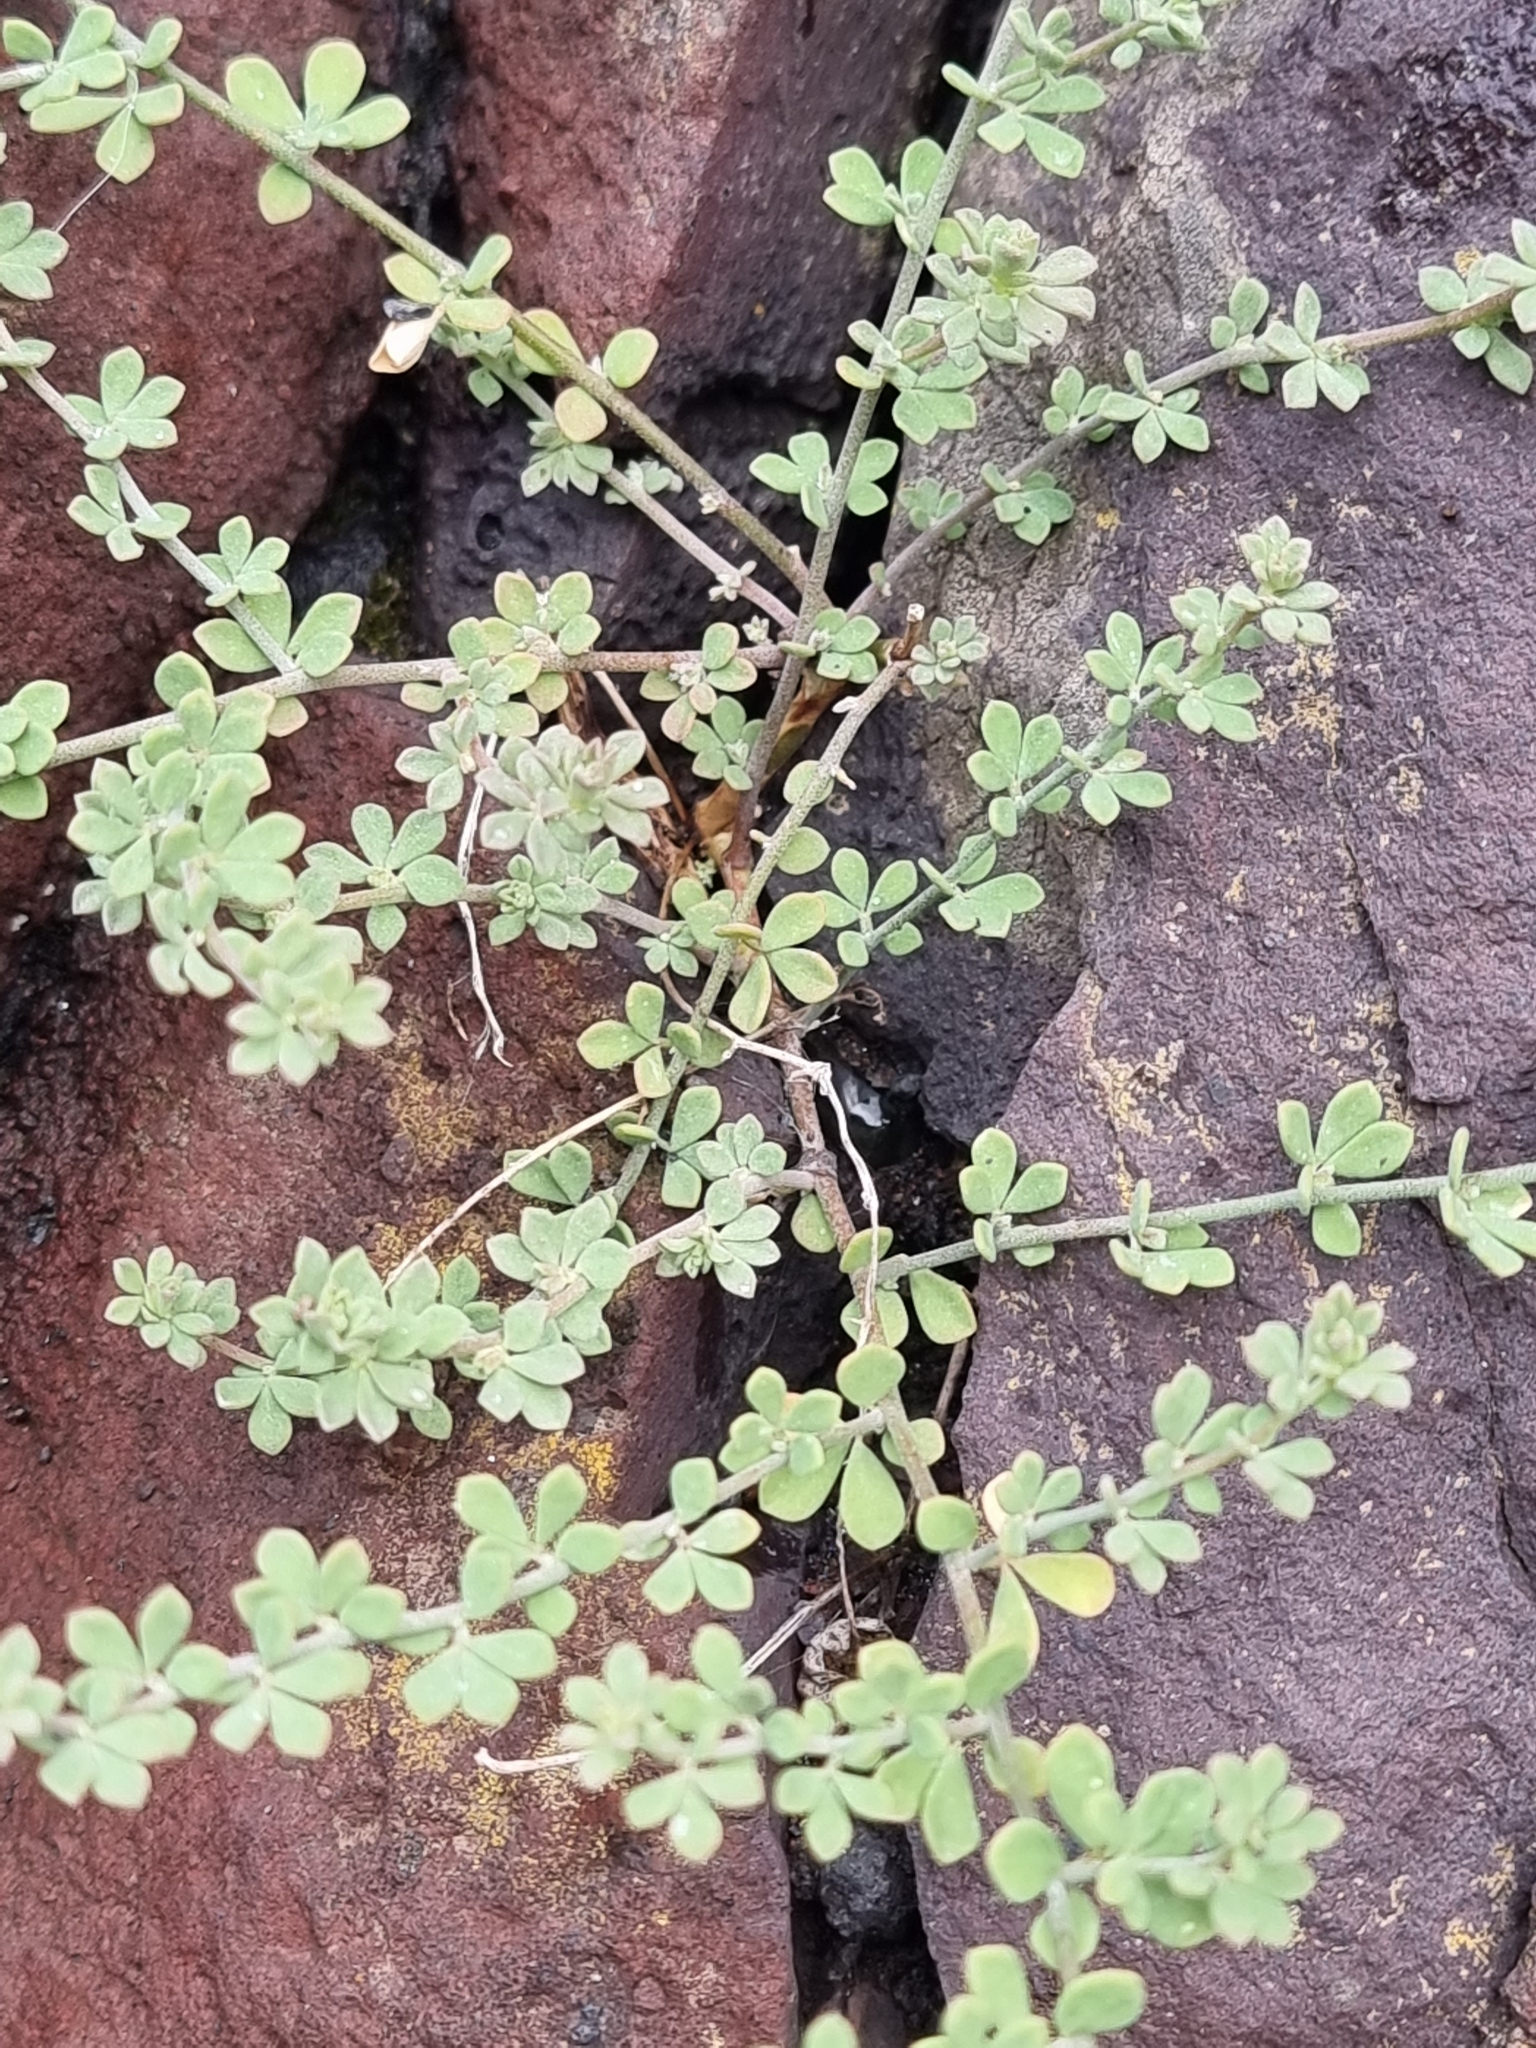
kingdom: Plantae
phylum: Tracheophyta
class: Magnoliopsida
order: Fabales
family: Fabaceae
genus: Lotus
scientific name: Lotus glaucus
